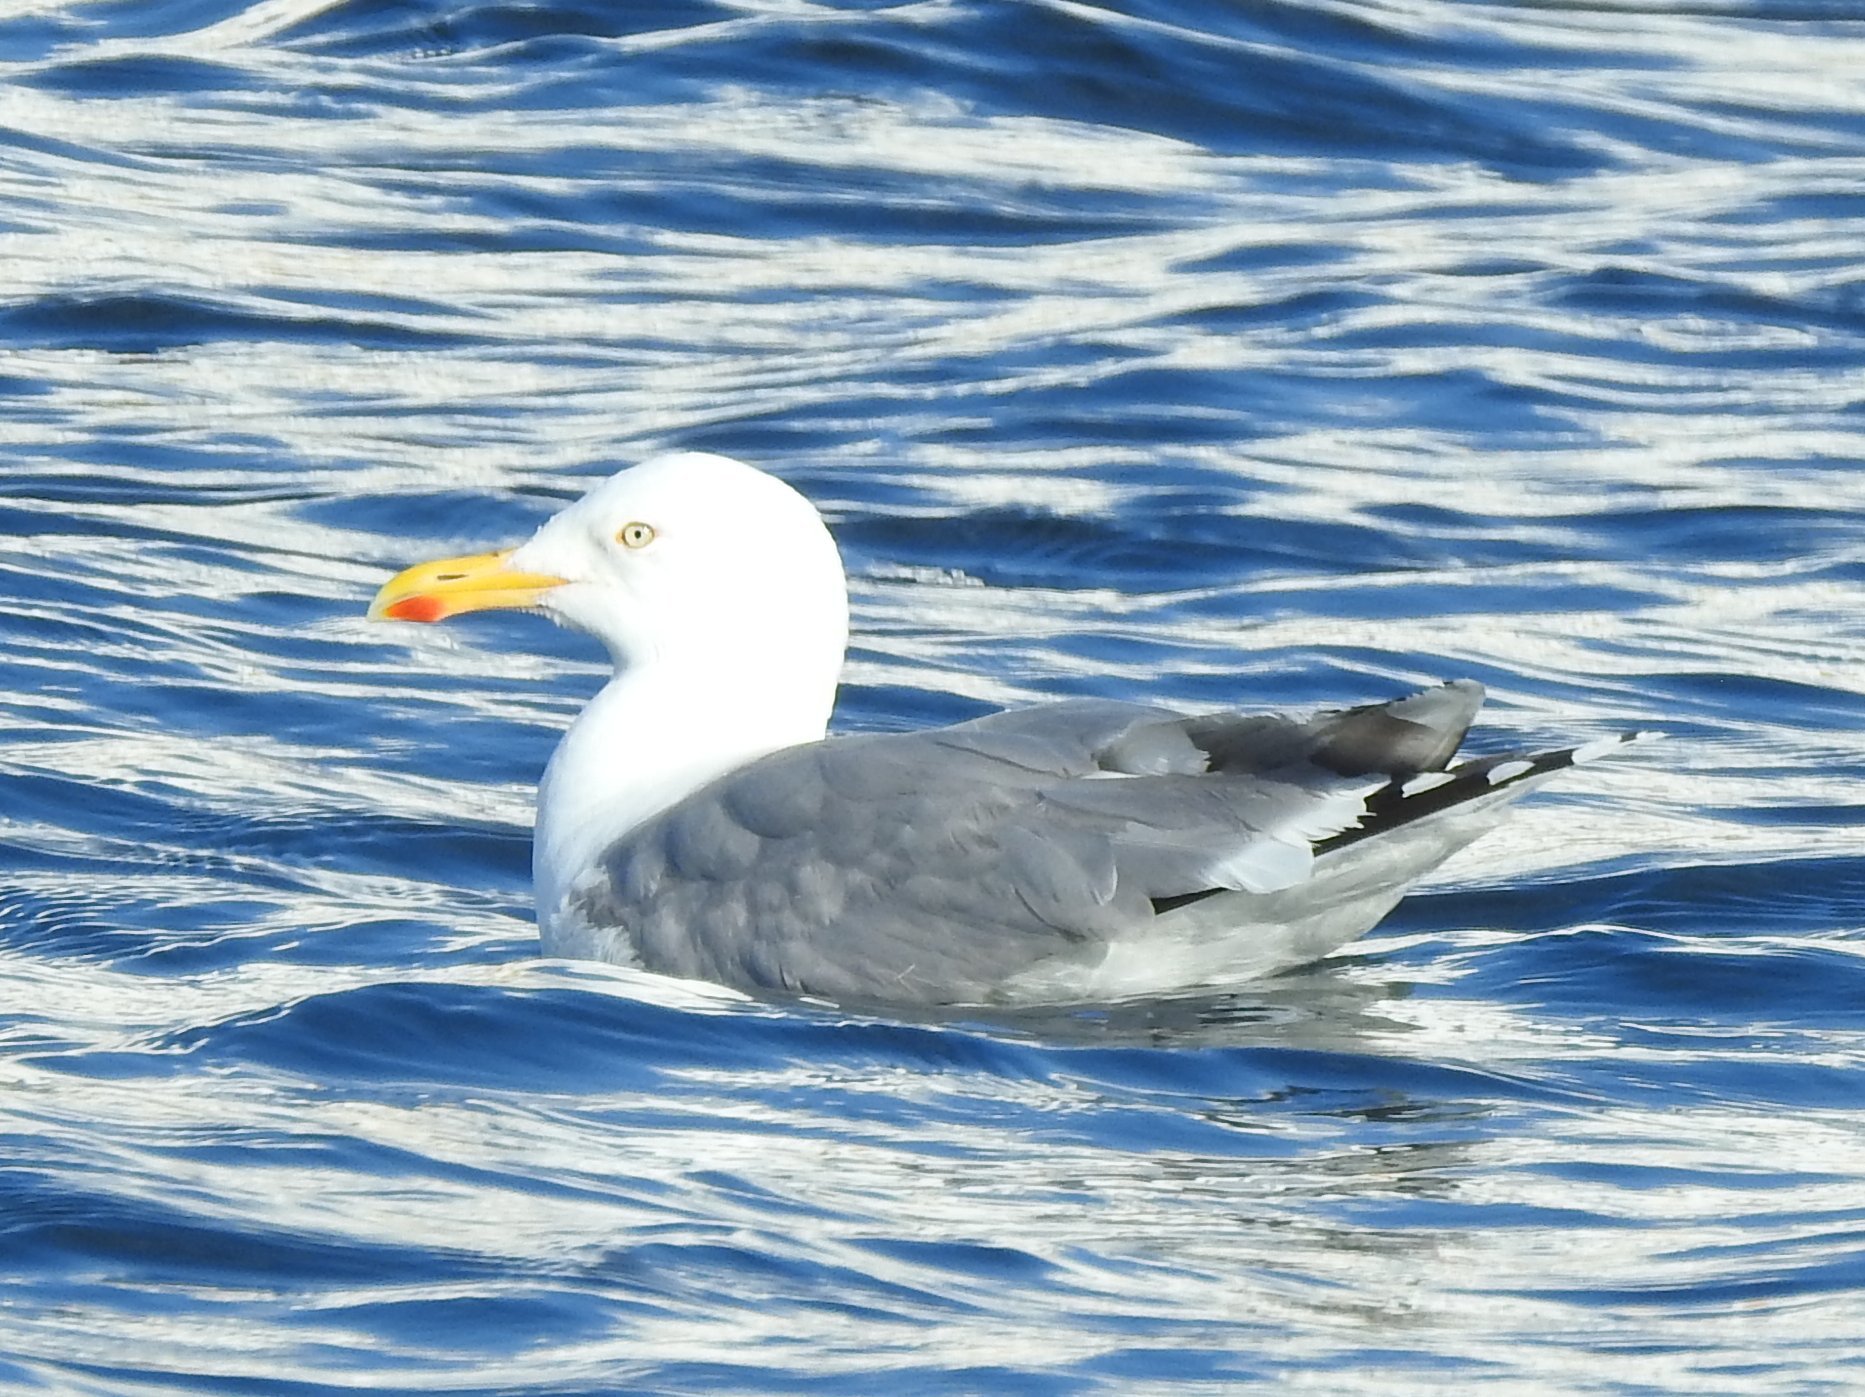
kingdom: Animalia
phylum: Chordata
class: Aves
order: Charadriiformes
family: Laridae
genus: Larus
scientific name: Larus argentatus
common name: Herring gull
